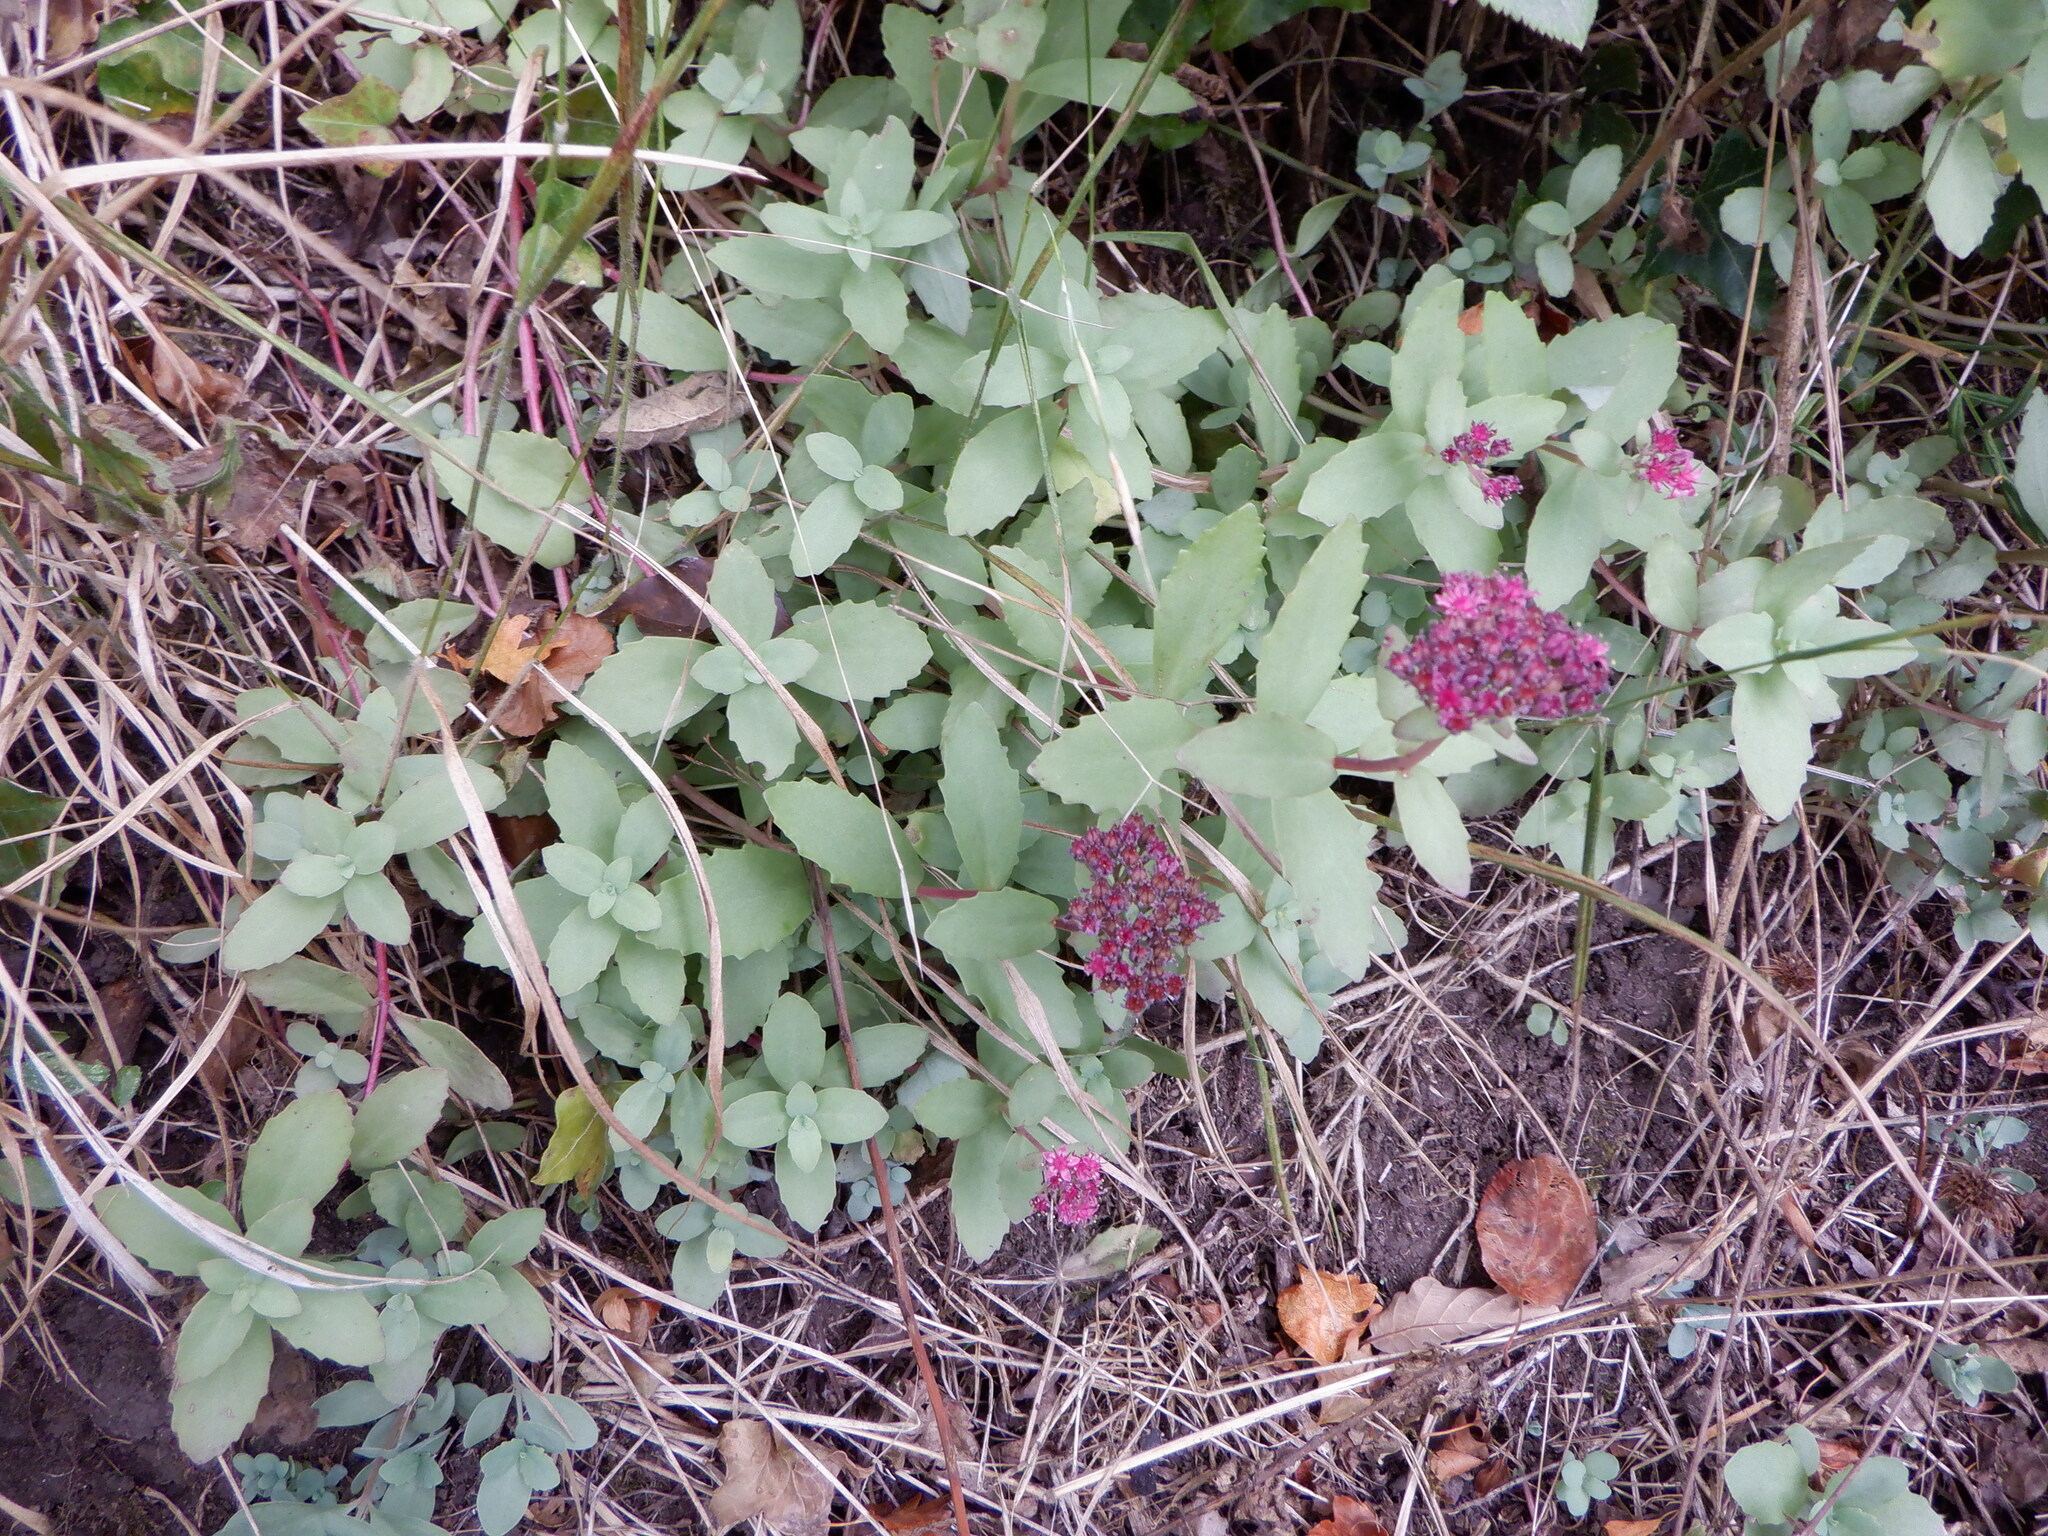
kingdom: Plantae
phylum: Tracheophyta
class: Magnoliopsida
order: Saxifragales
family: Crassulaceae
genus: Hylotelephium
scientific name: Hylotelephium telephium
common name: Live-forever
